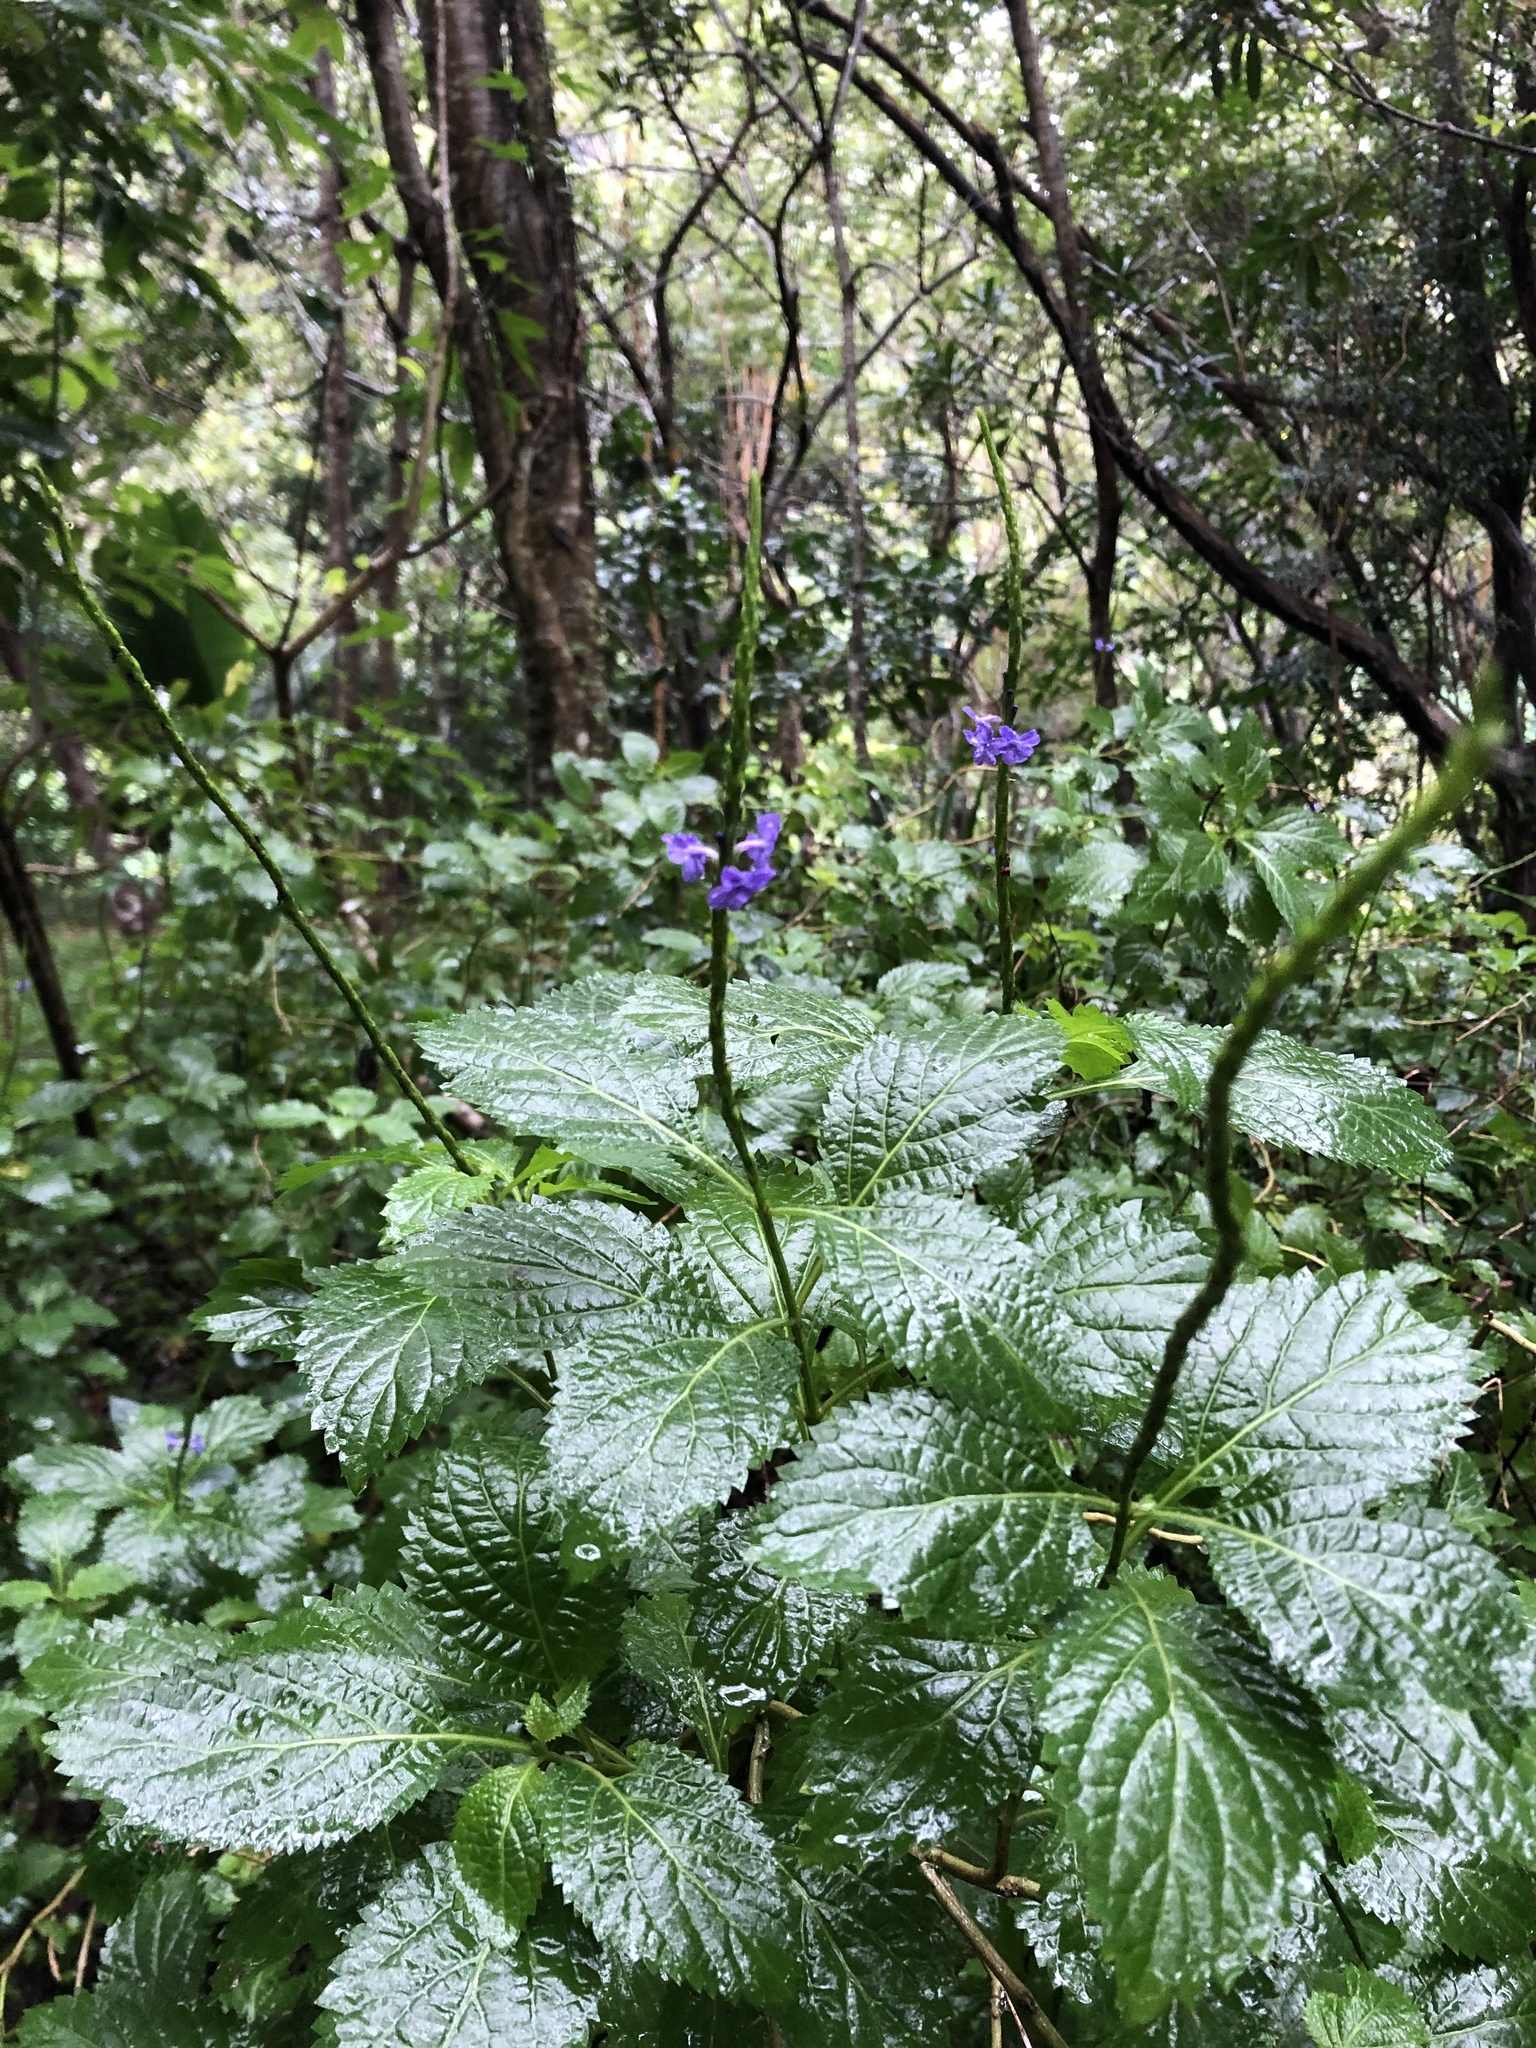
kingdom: Plantae
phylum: Tracheophyta
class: Magnoliopsida
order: Lamiales
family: Verbenaceae
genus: Stachytarpheta
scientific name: Stachytarpheta urticifolia
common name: Nettleleaf velvetberry
